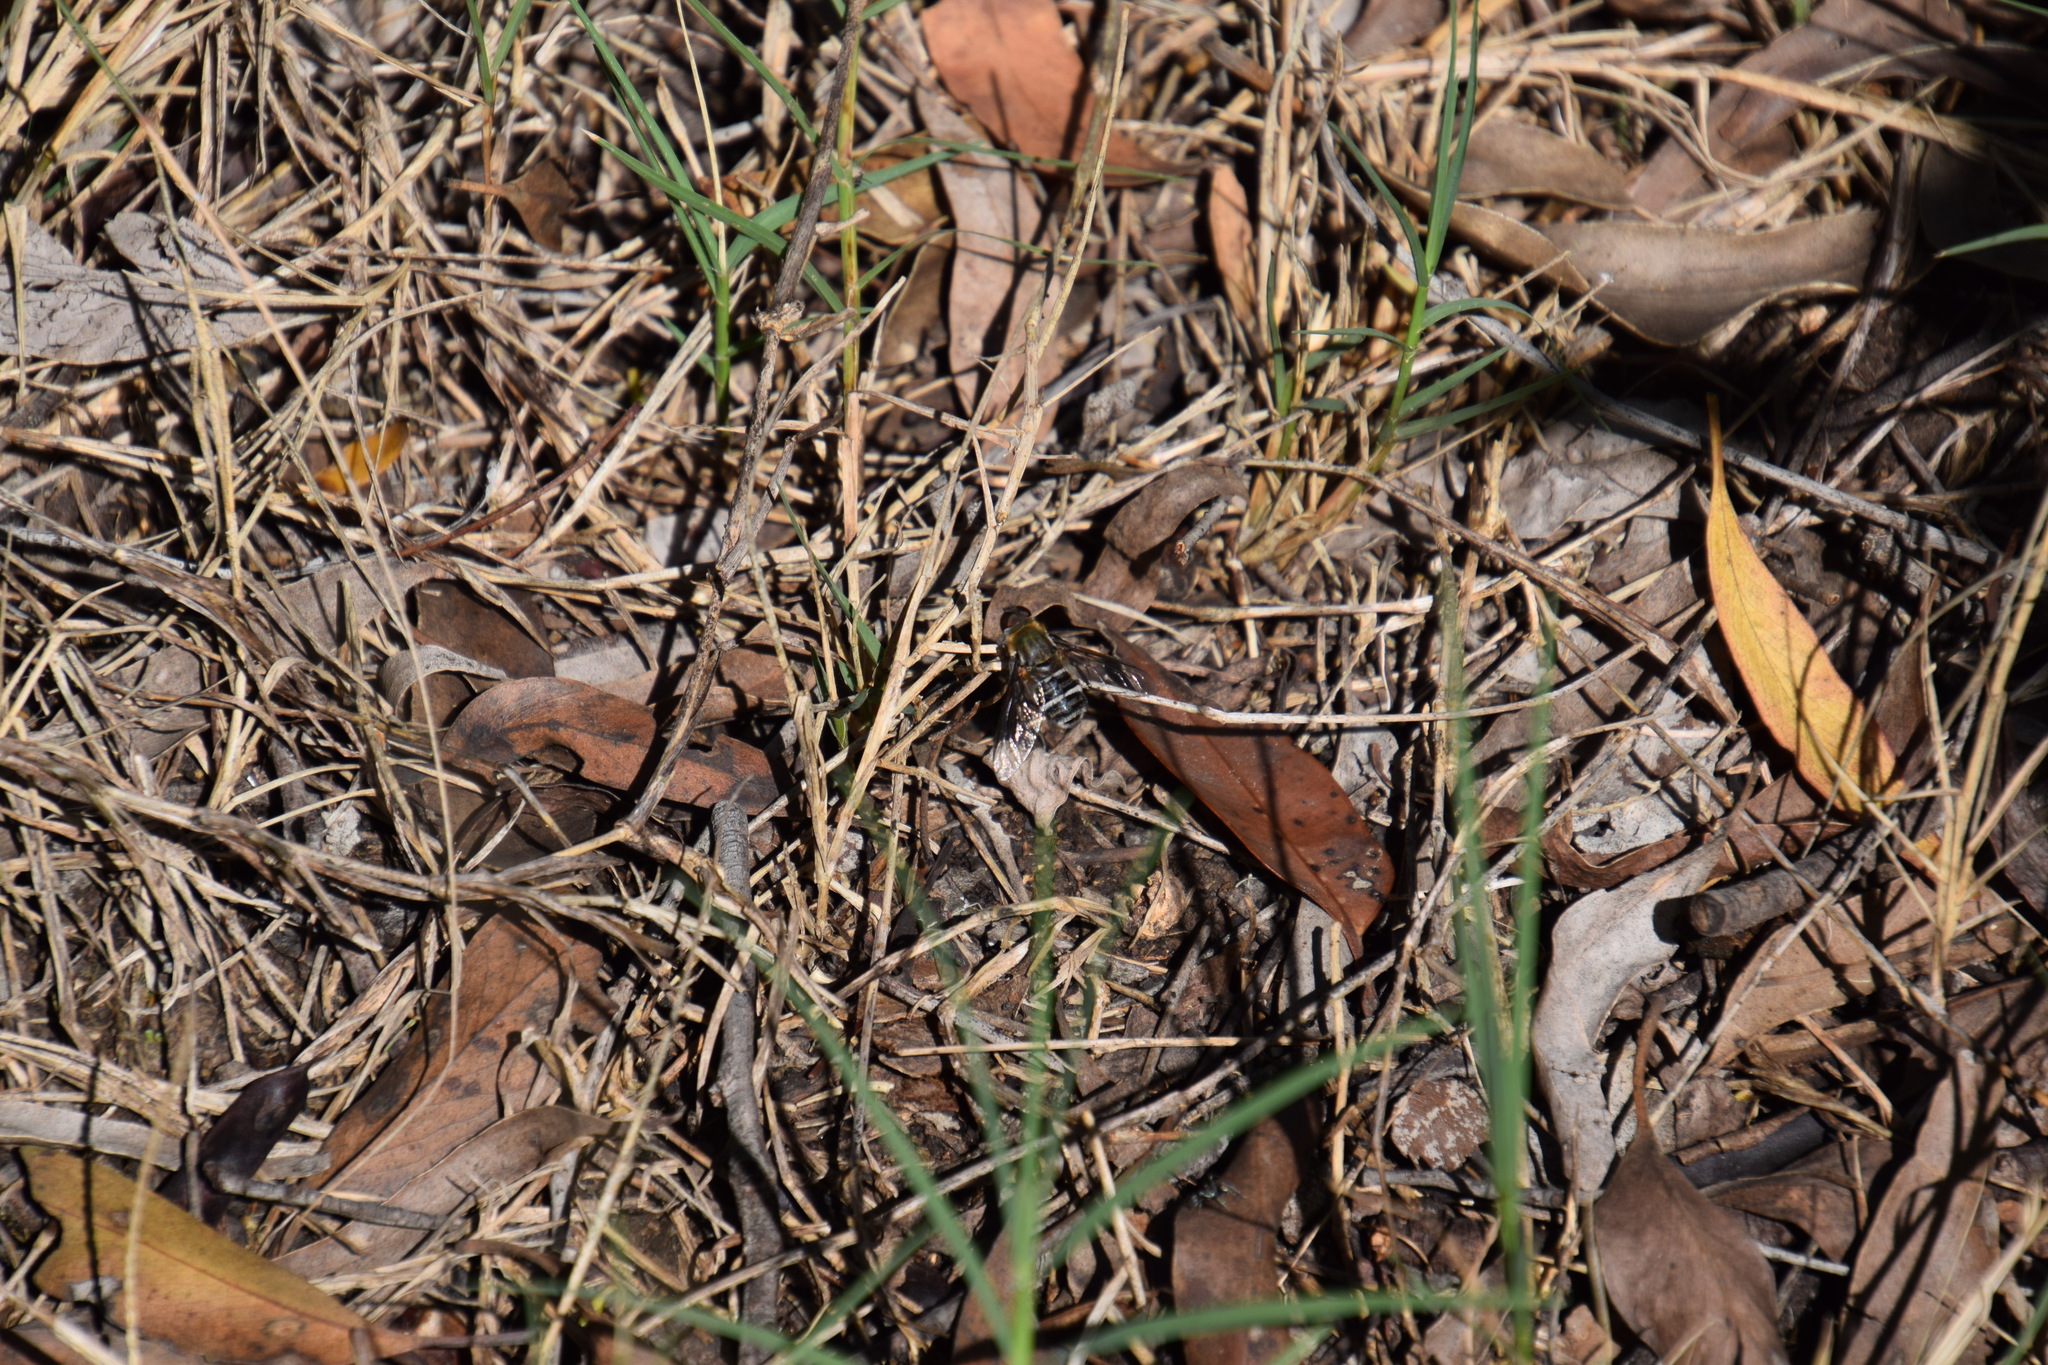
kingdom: Animalia
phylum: Arthropoda
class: Insecta
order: Diptera
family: Bombyliidae
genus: Villa
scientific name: Villa
